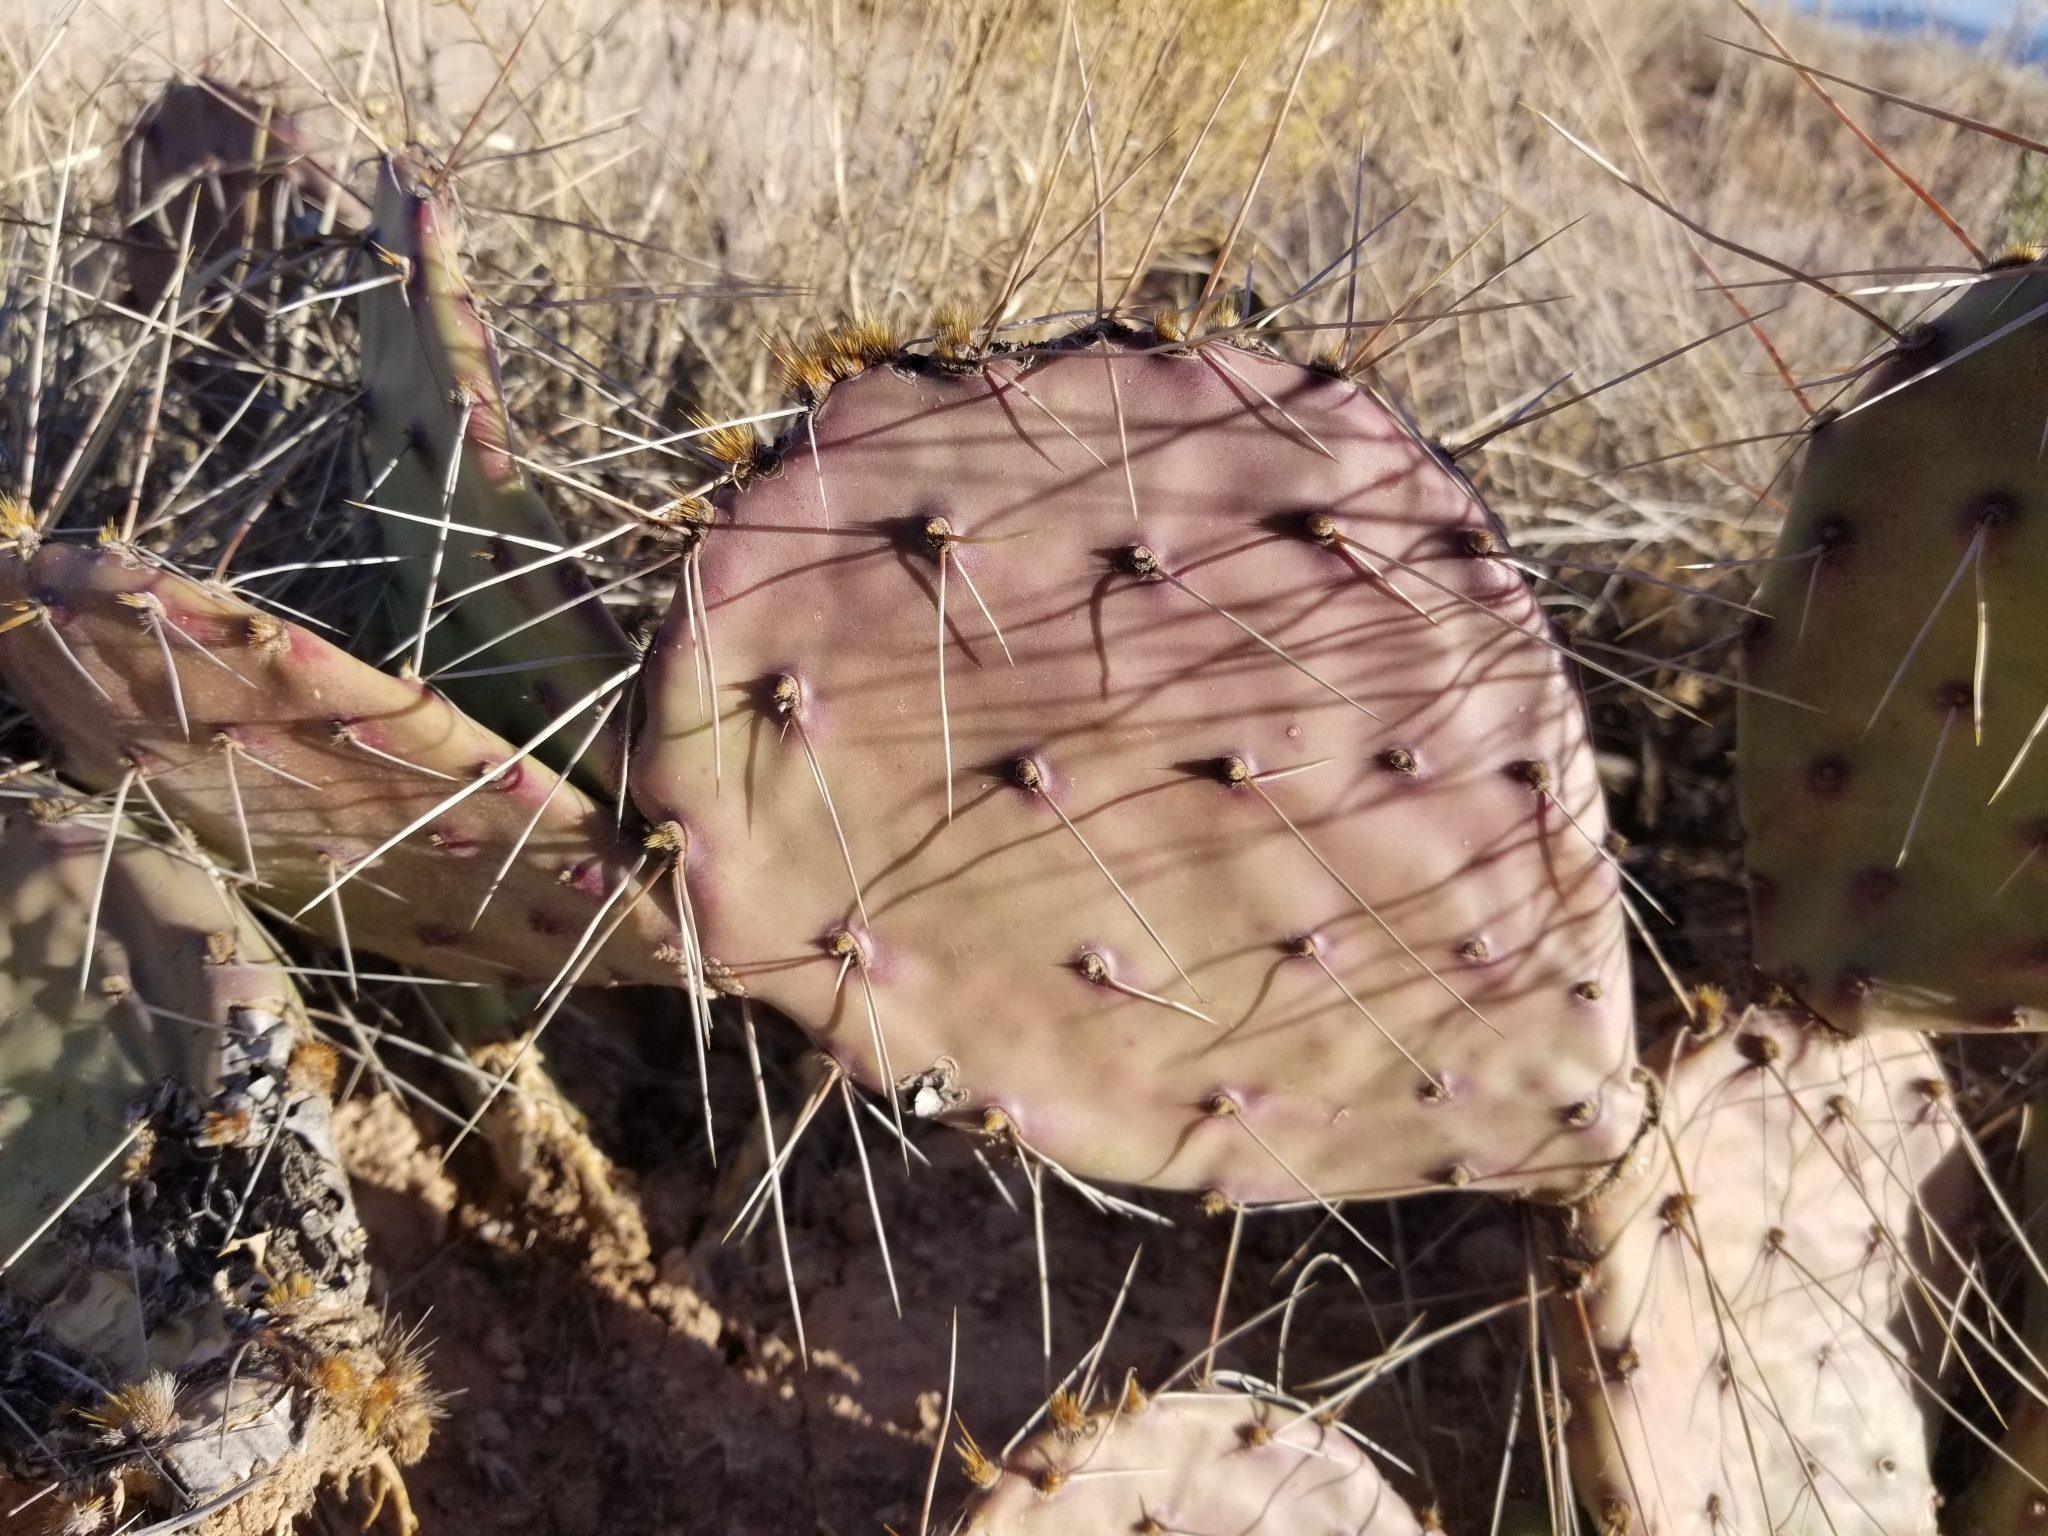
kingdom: Plantae
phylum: Tracheophyta
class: Magnoliopsida
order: Caryophyllales
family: Cactaceae
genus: Opuntia
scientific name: Opuntia phaeacantha
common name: New mexico prickly-pear
